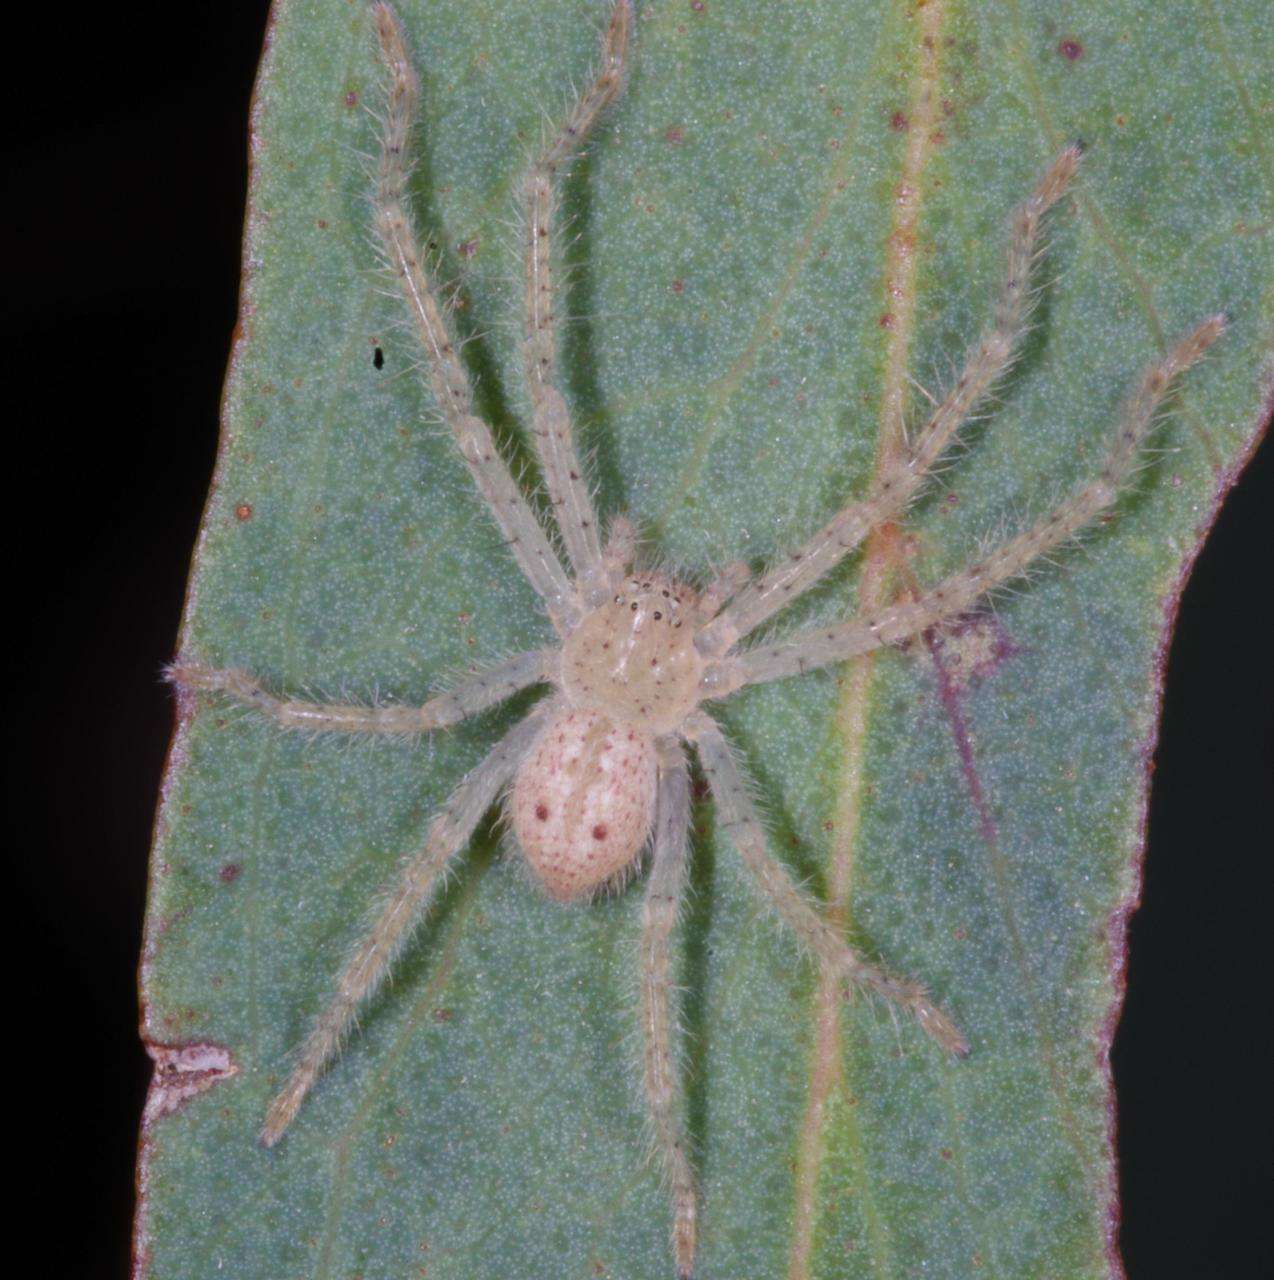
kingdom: Animalia
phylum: Arthropoda
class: Arachnida
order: Araneae
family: Sparassidae
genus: Neosparassus
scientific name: Neosparassus diana
